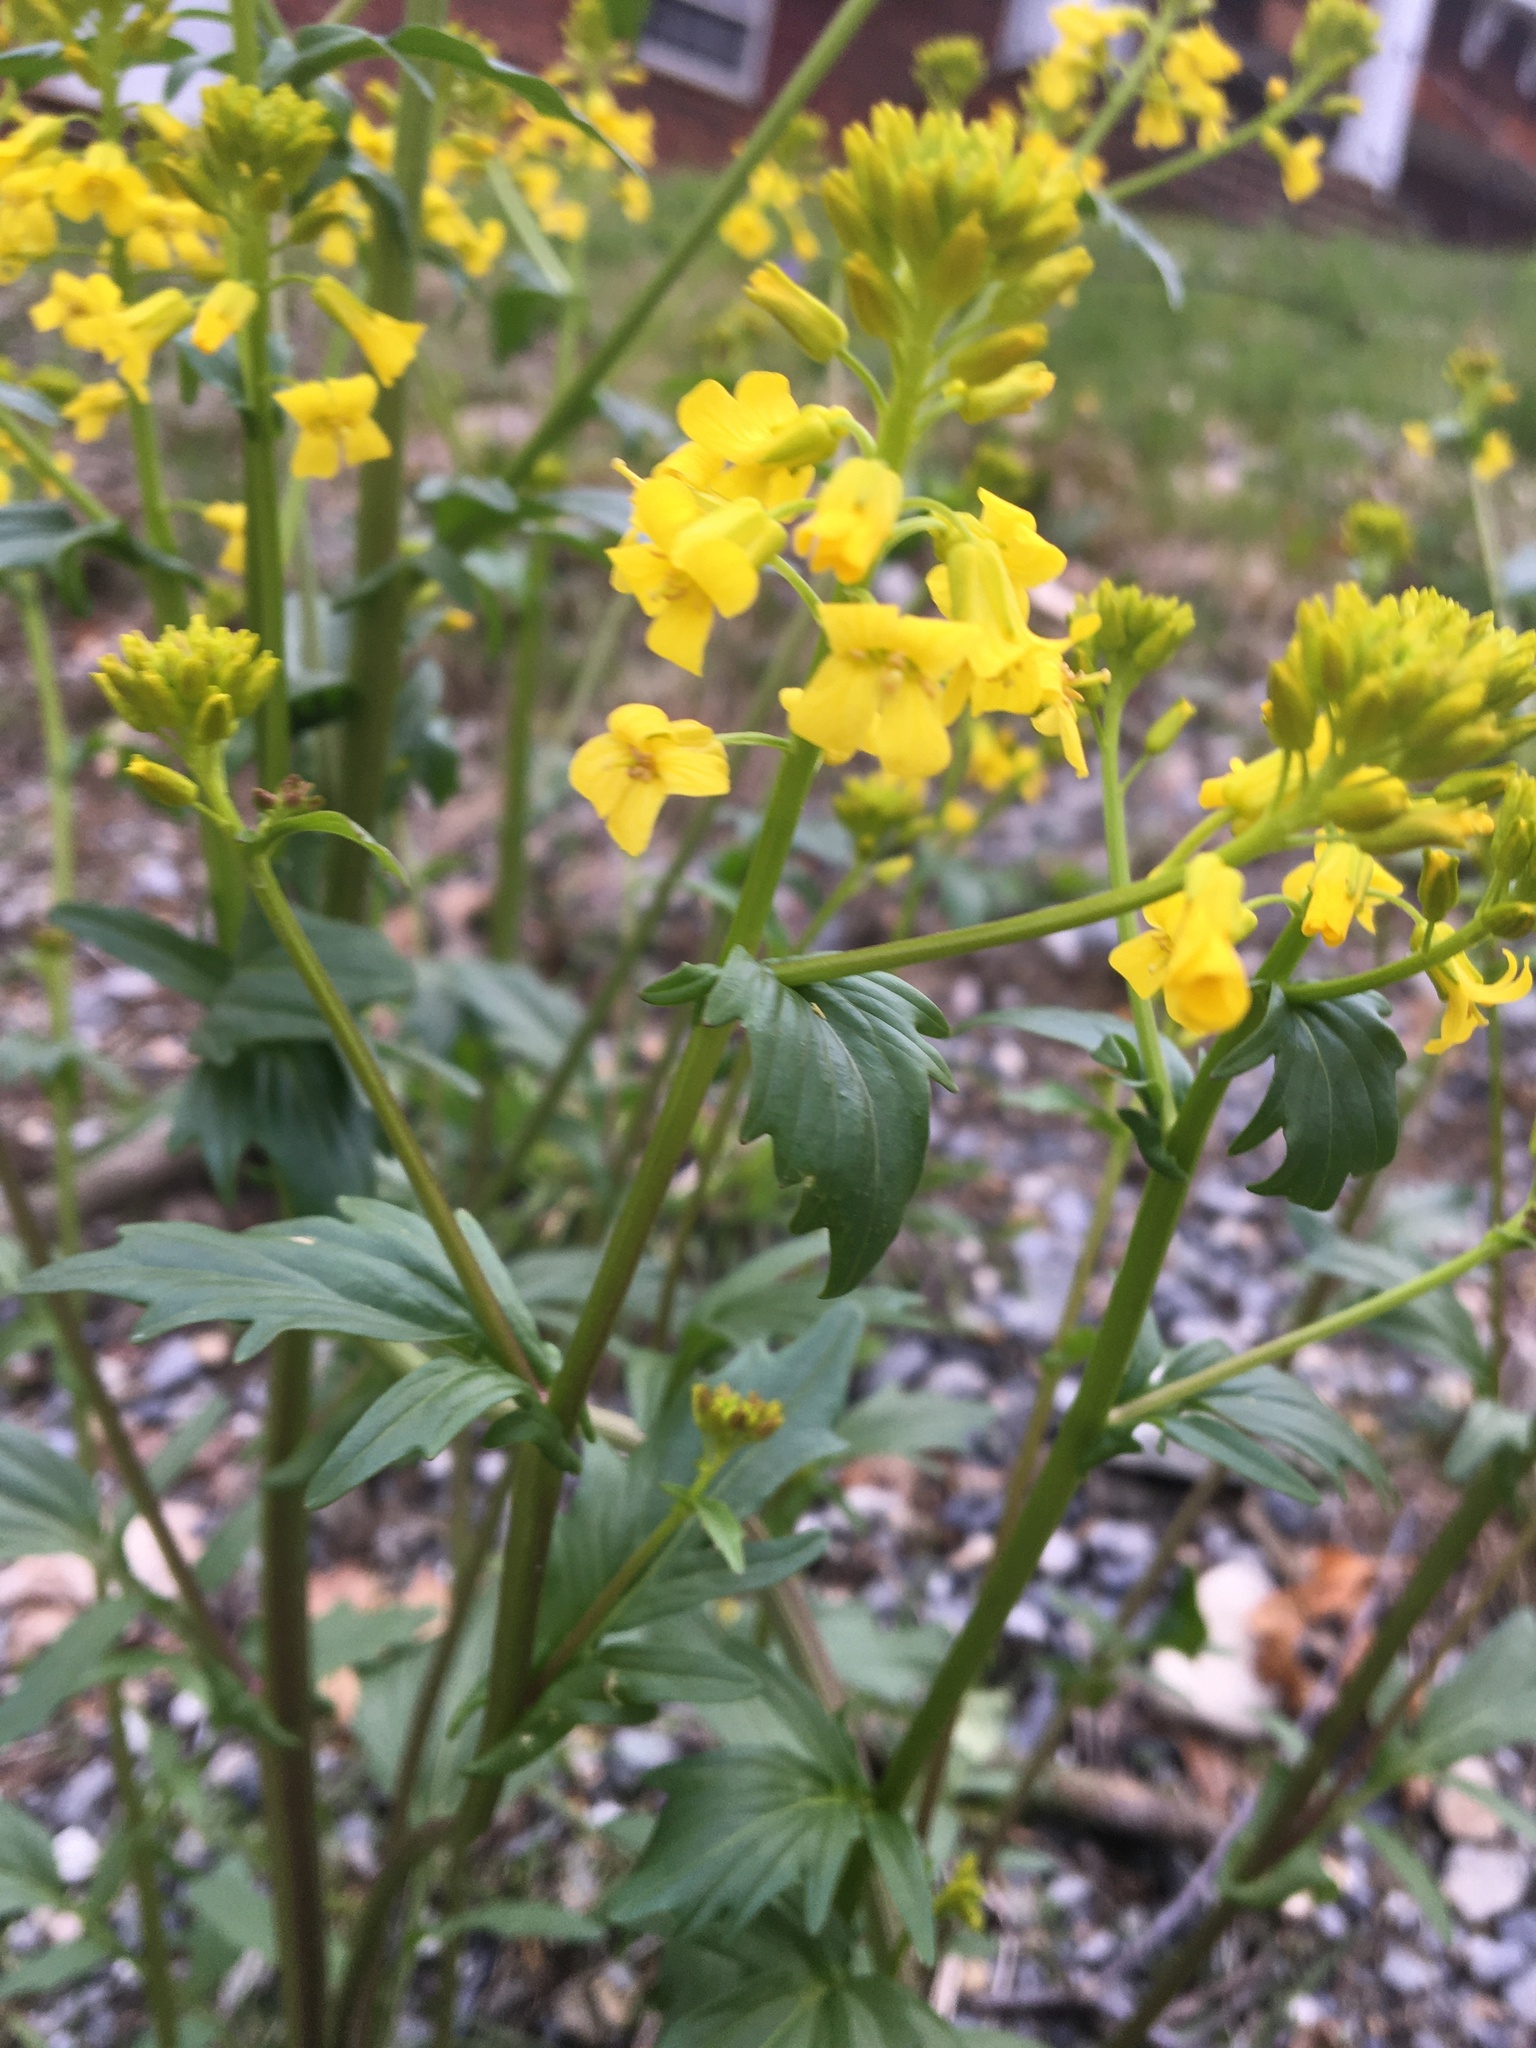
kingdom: Plantae
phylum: Tracheophyta
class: Magnoliopsida
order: Brassicales
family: Brassicaceae
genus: Barbarea
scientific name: Barbarea vulgaris
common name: Cressy-greens
